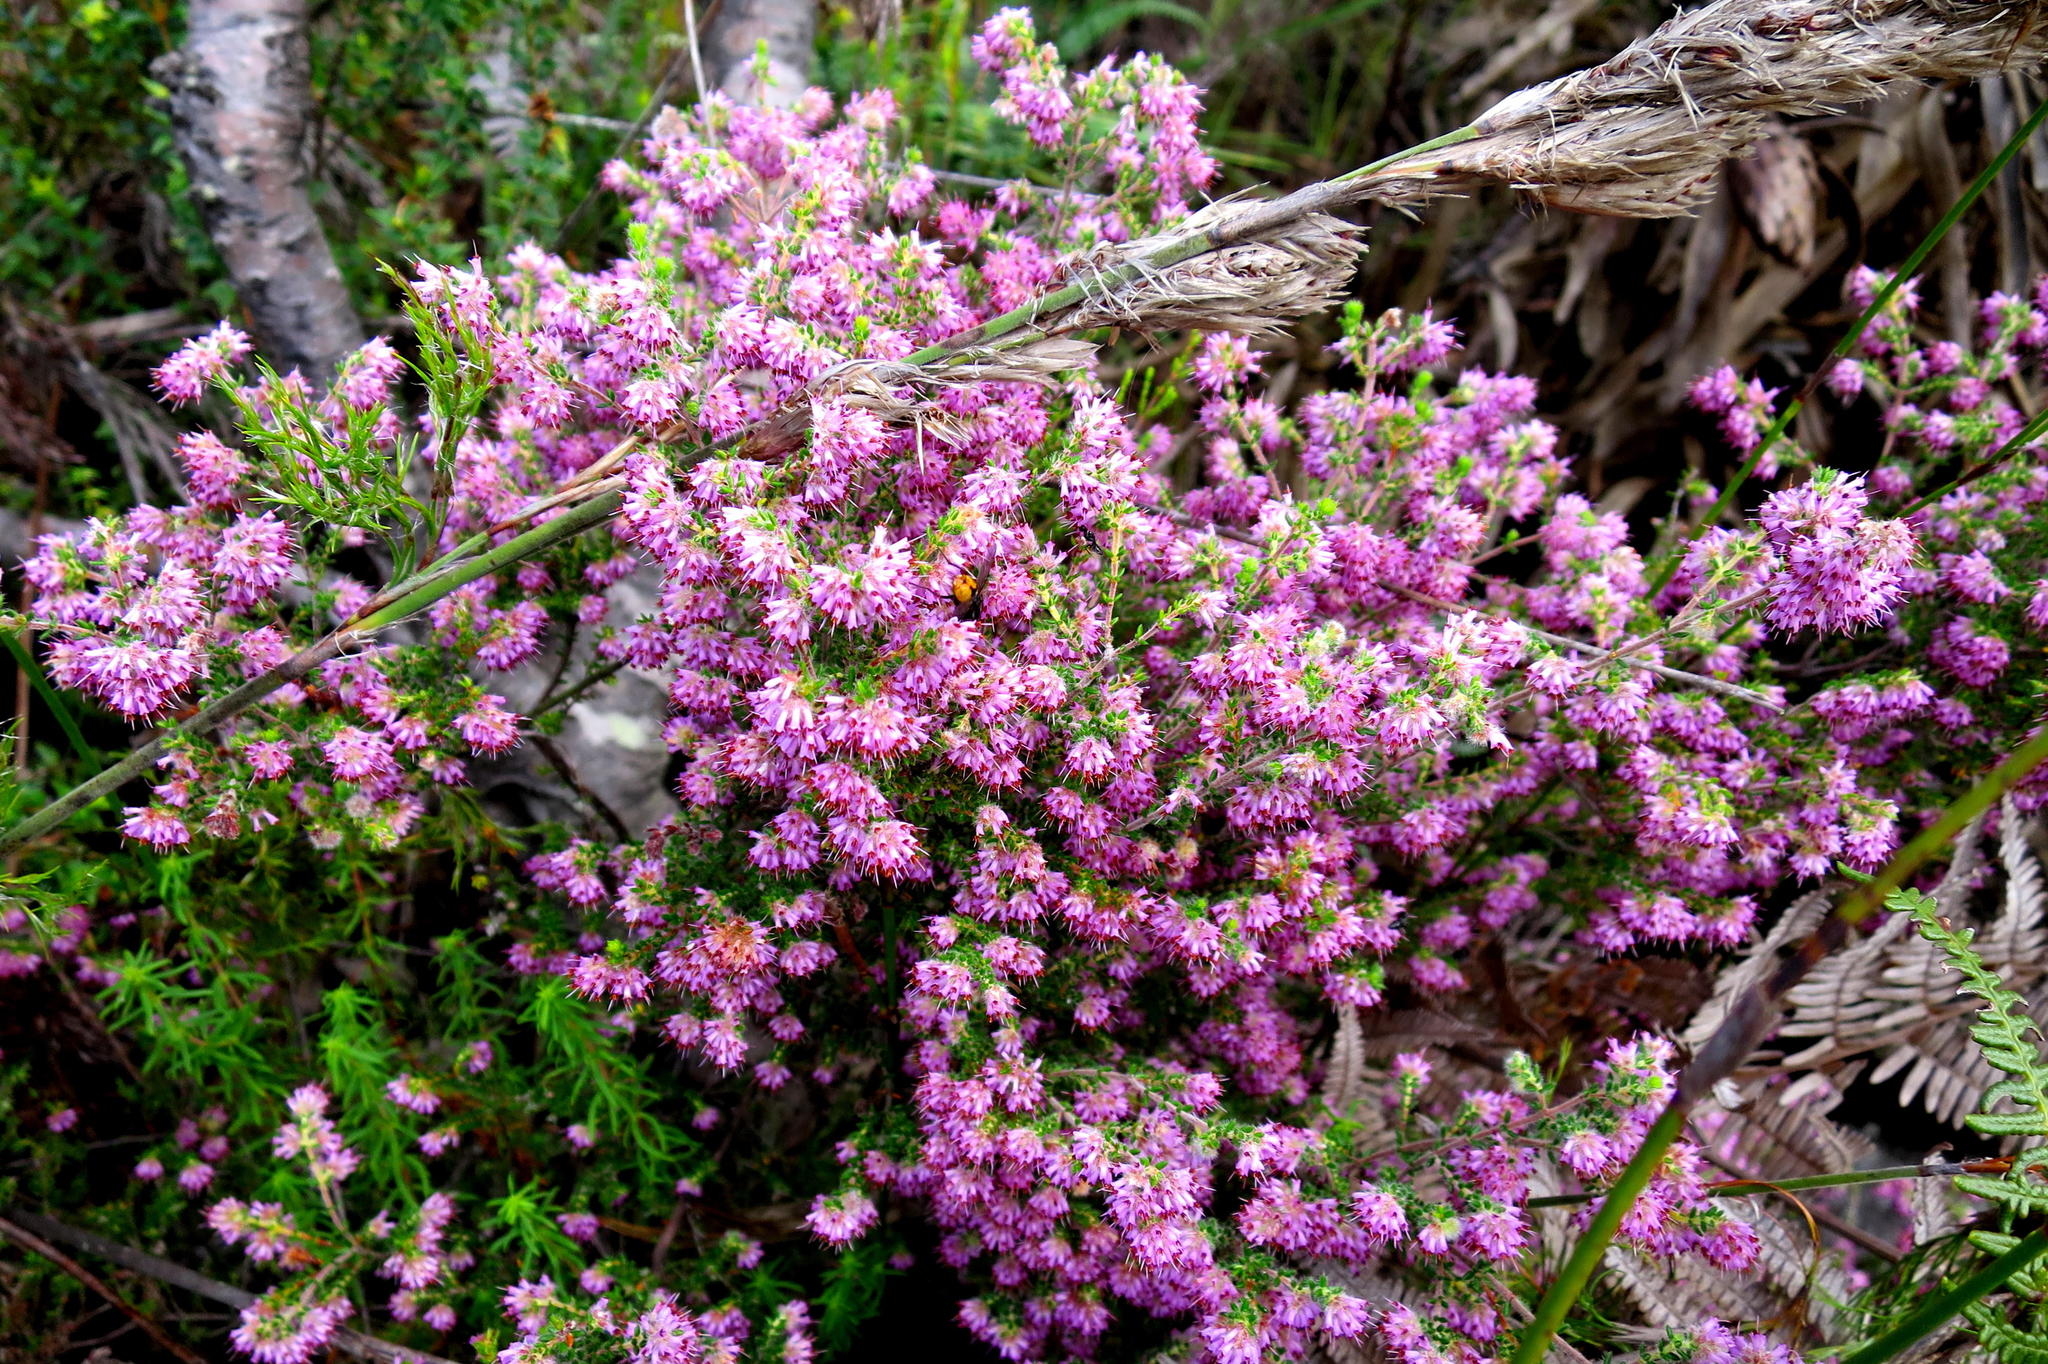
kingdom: Plantae
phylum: Tracheophyta
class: Magnoliopsida
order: Ericales
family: Ericaceae
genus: Erica
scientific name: Erica similis
